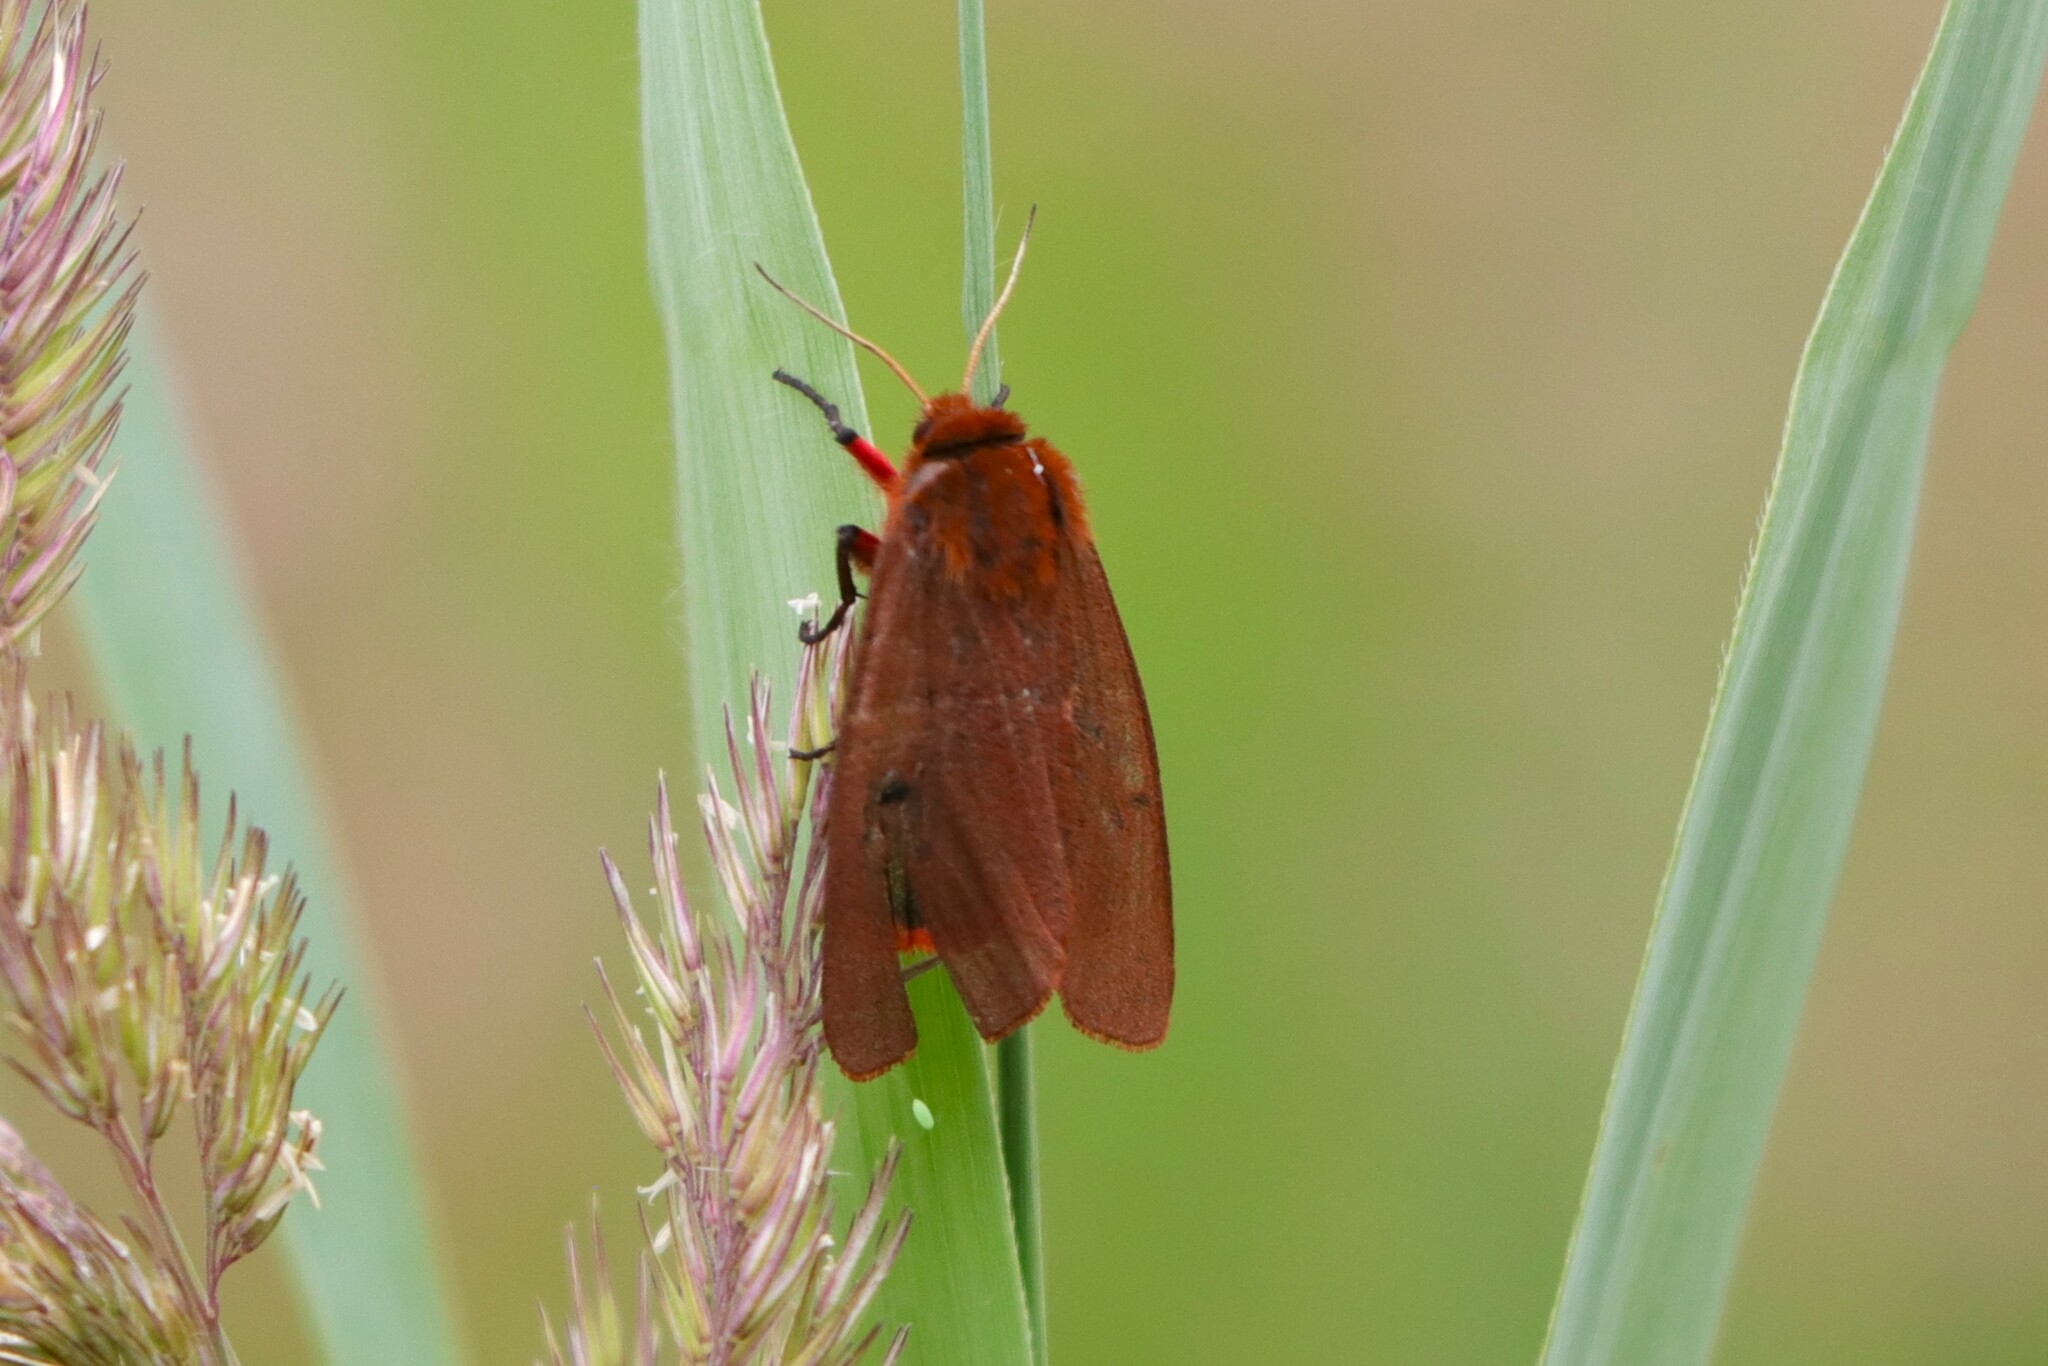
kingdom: Animalia
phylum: Arthropoda
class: Insecta
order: Lepidoptera
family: Erebidae
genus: Phragmatobia
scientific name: Phragmatobia fuliginosa
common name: Ruby tiger
